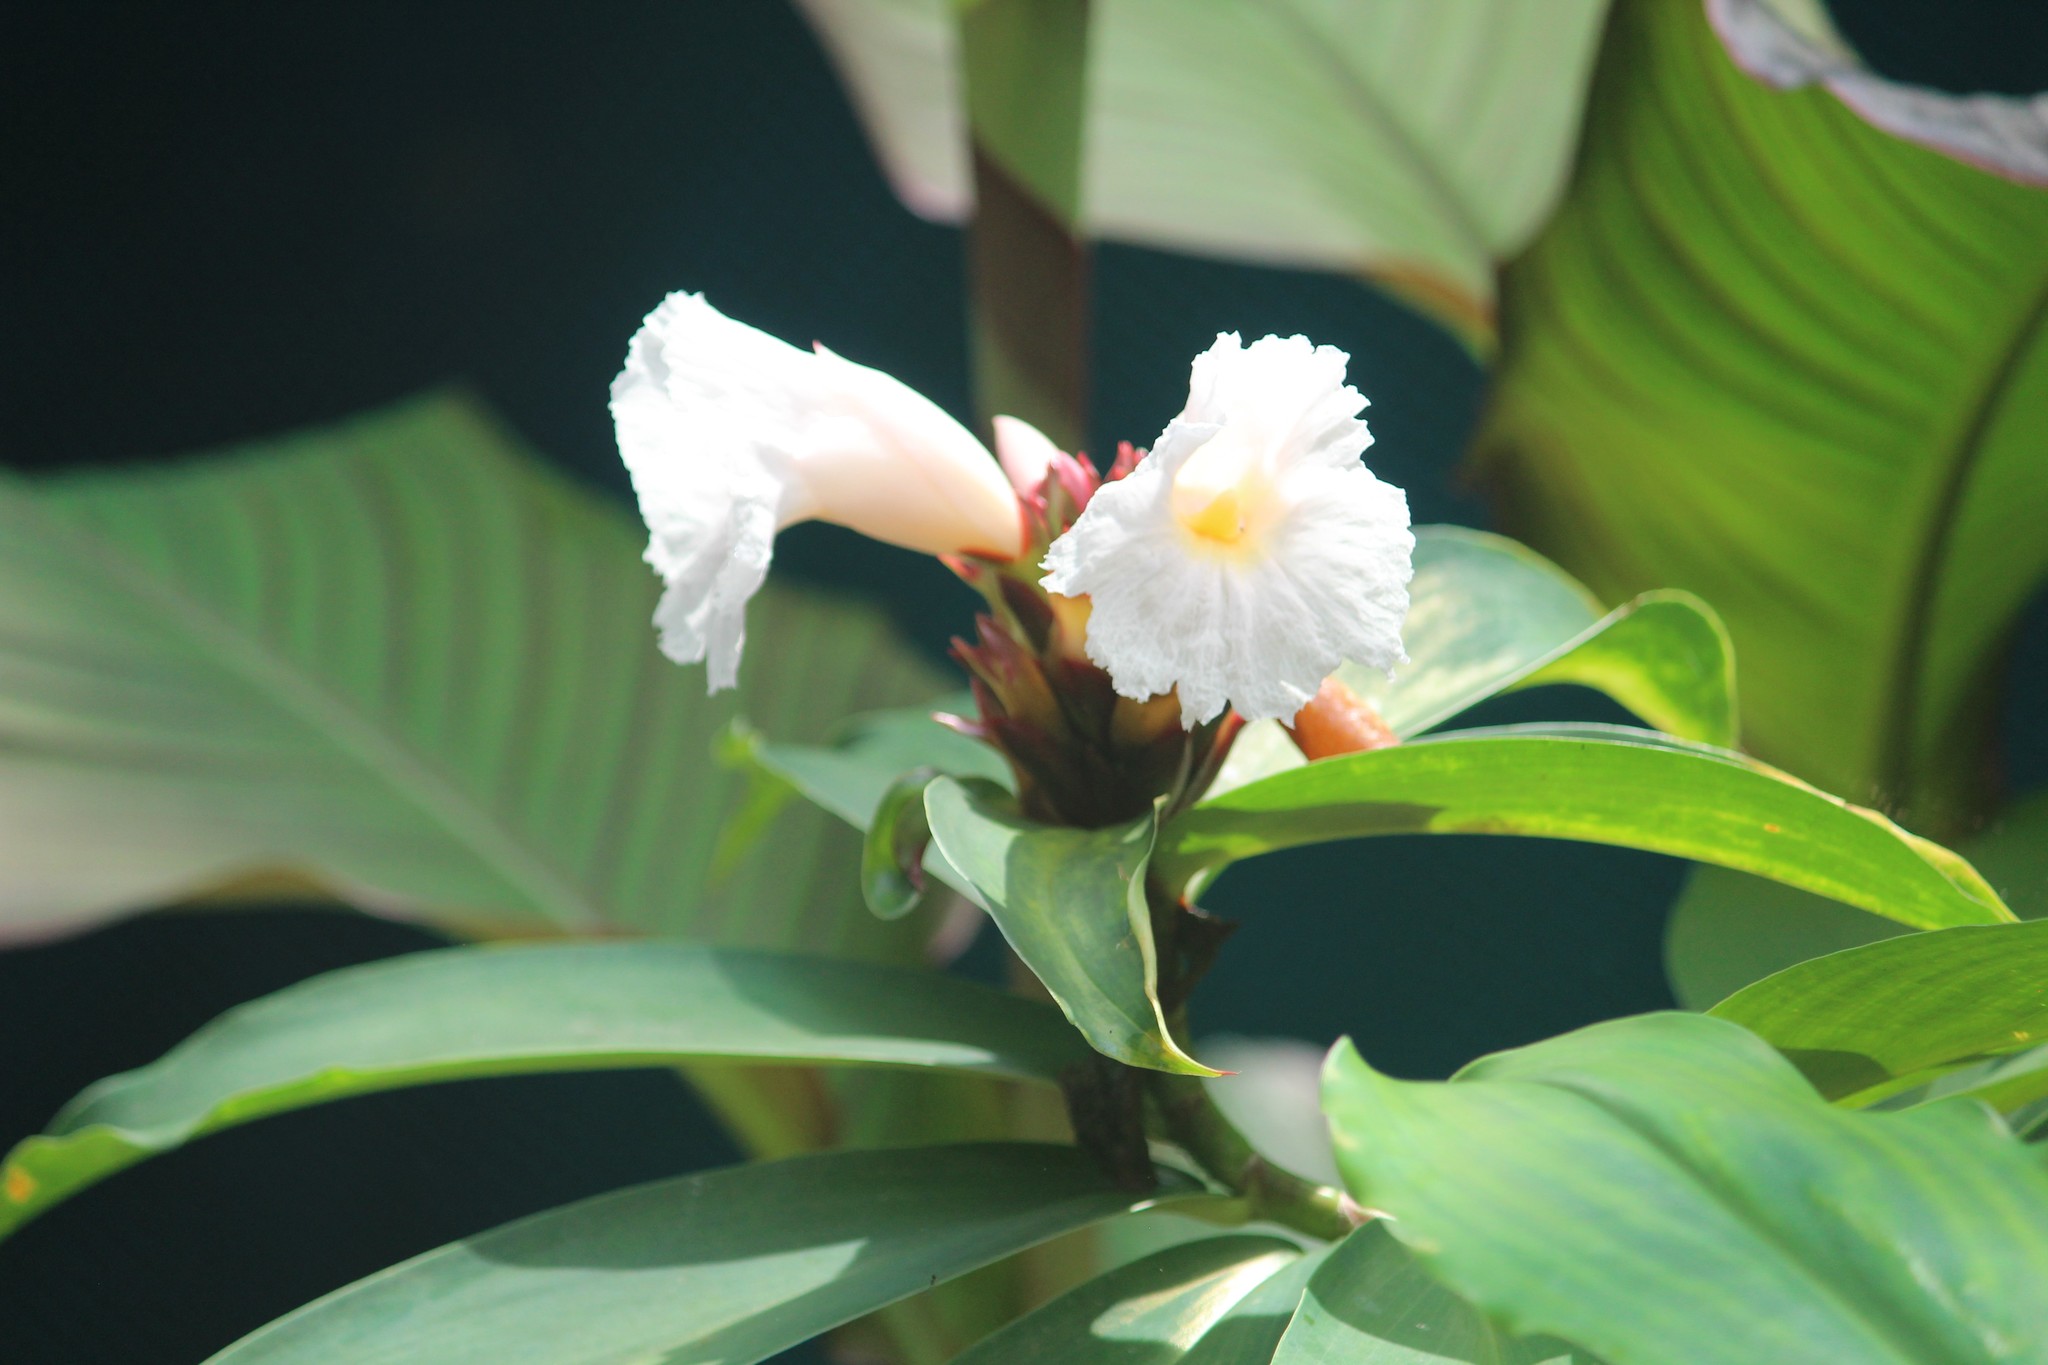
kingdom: Plantae
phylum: Tracheophyta
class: Liliopsida
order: Zingiberales
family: Costaceae
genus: Hellenia
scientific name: Hellenia speciosa
